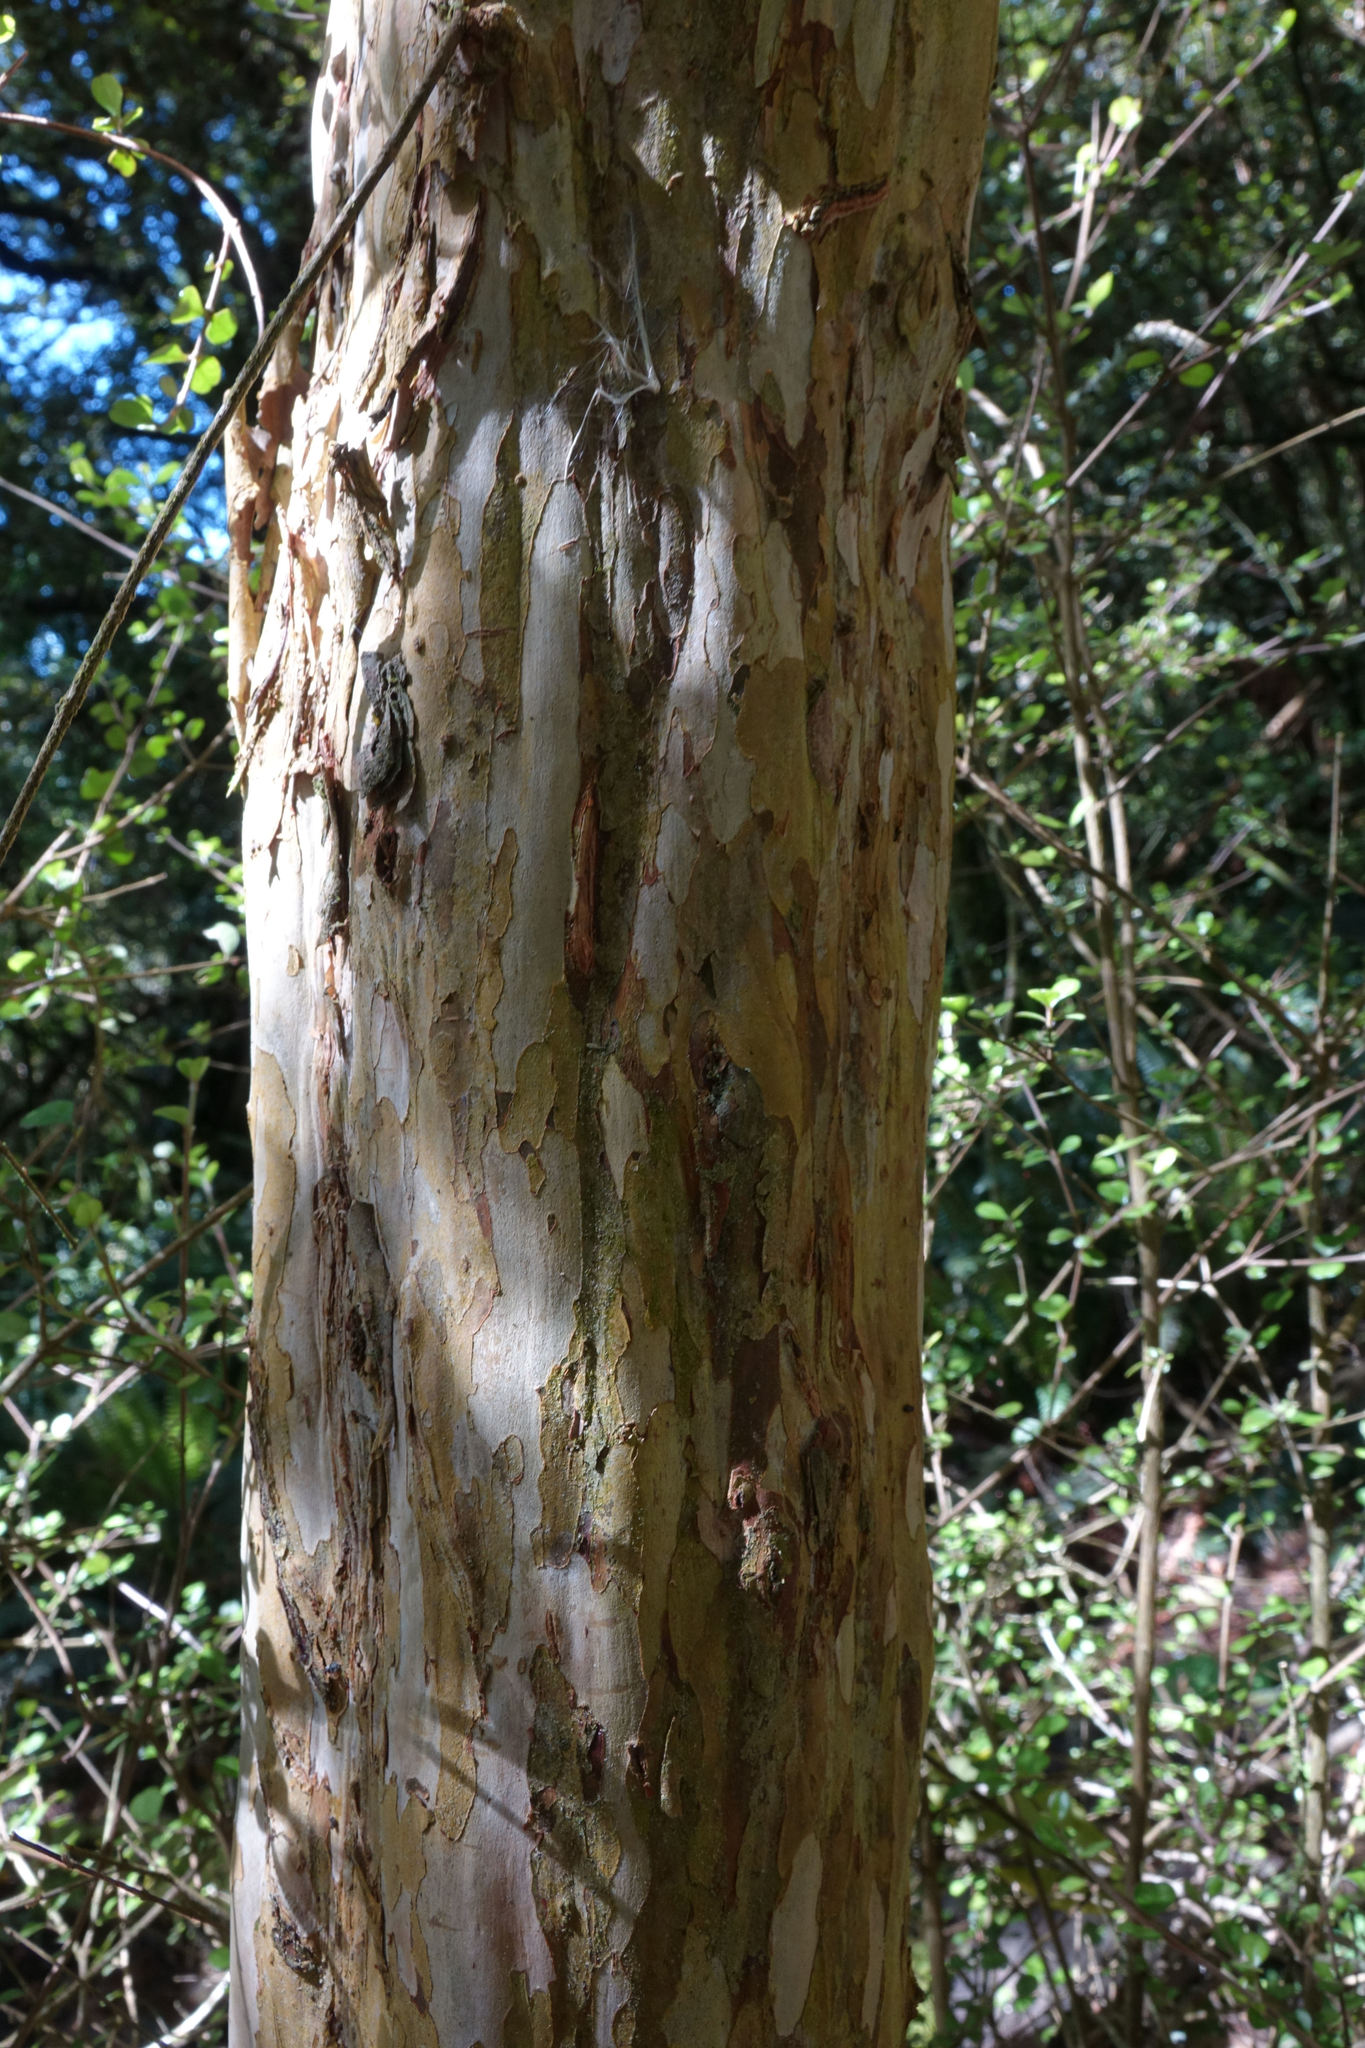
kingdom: Plantae
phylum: Tracheophyta
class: Magnoliopsida
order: Myrtales
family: Myrtaceae
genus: Lophomyrtus
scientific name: Lophomyrtus obcordata
